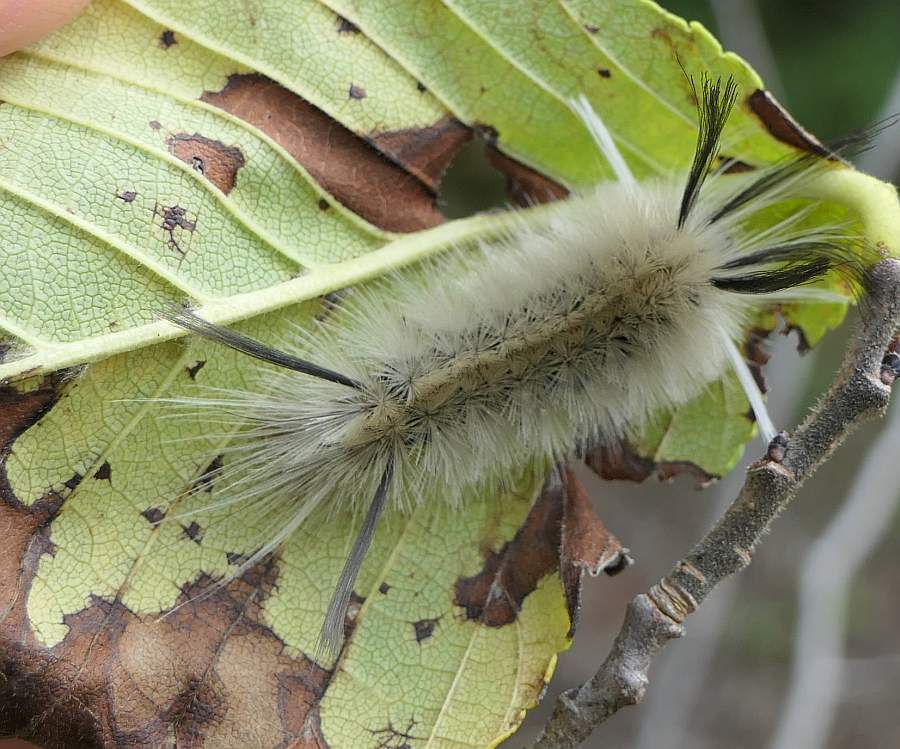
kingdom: Animalia
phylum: Arthropoda
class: Insecta
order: Lepidoptera
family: Erebidae
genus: Halysidota
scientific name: Halysidota tessellaris
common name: Banded tussock moth
